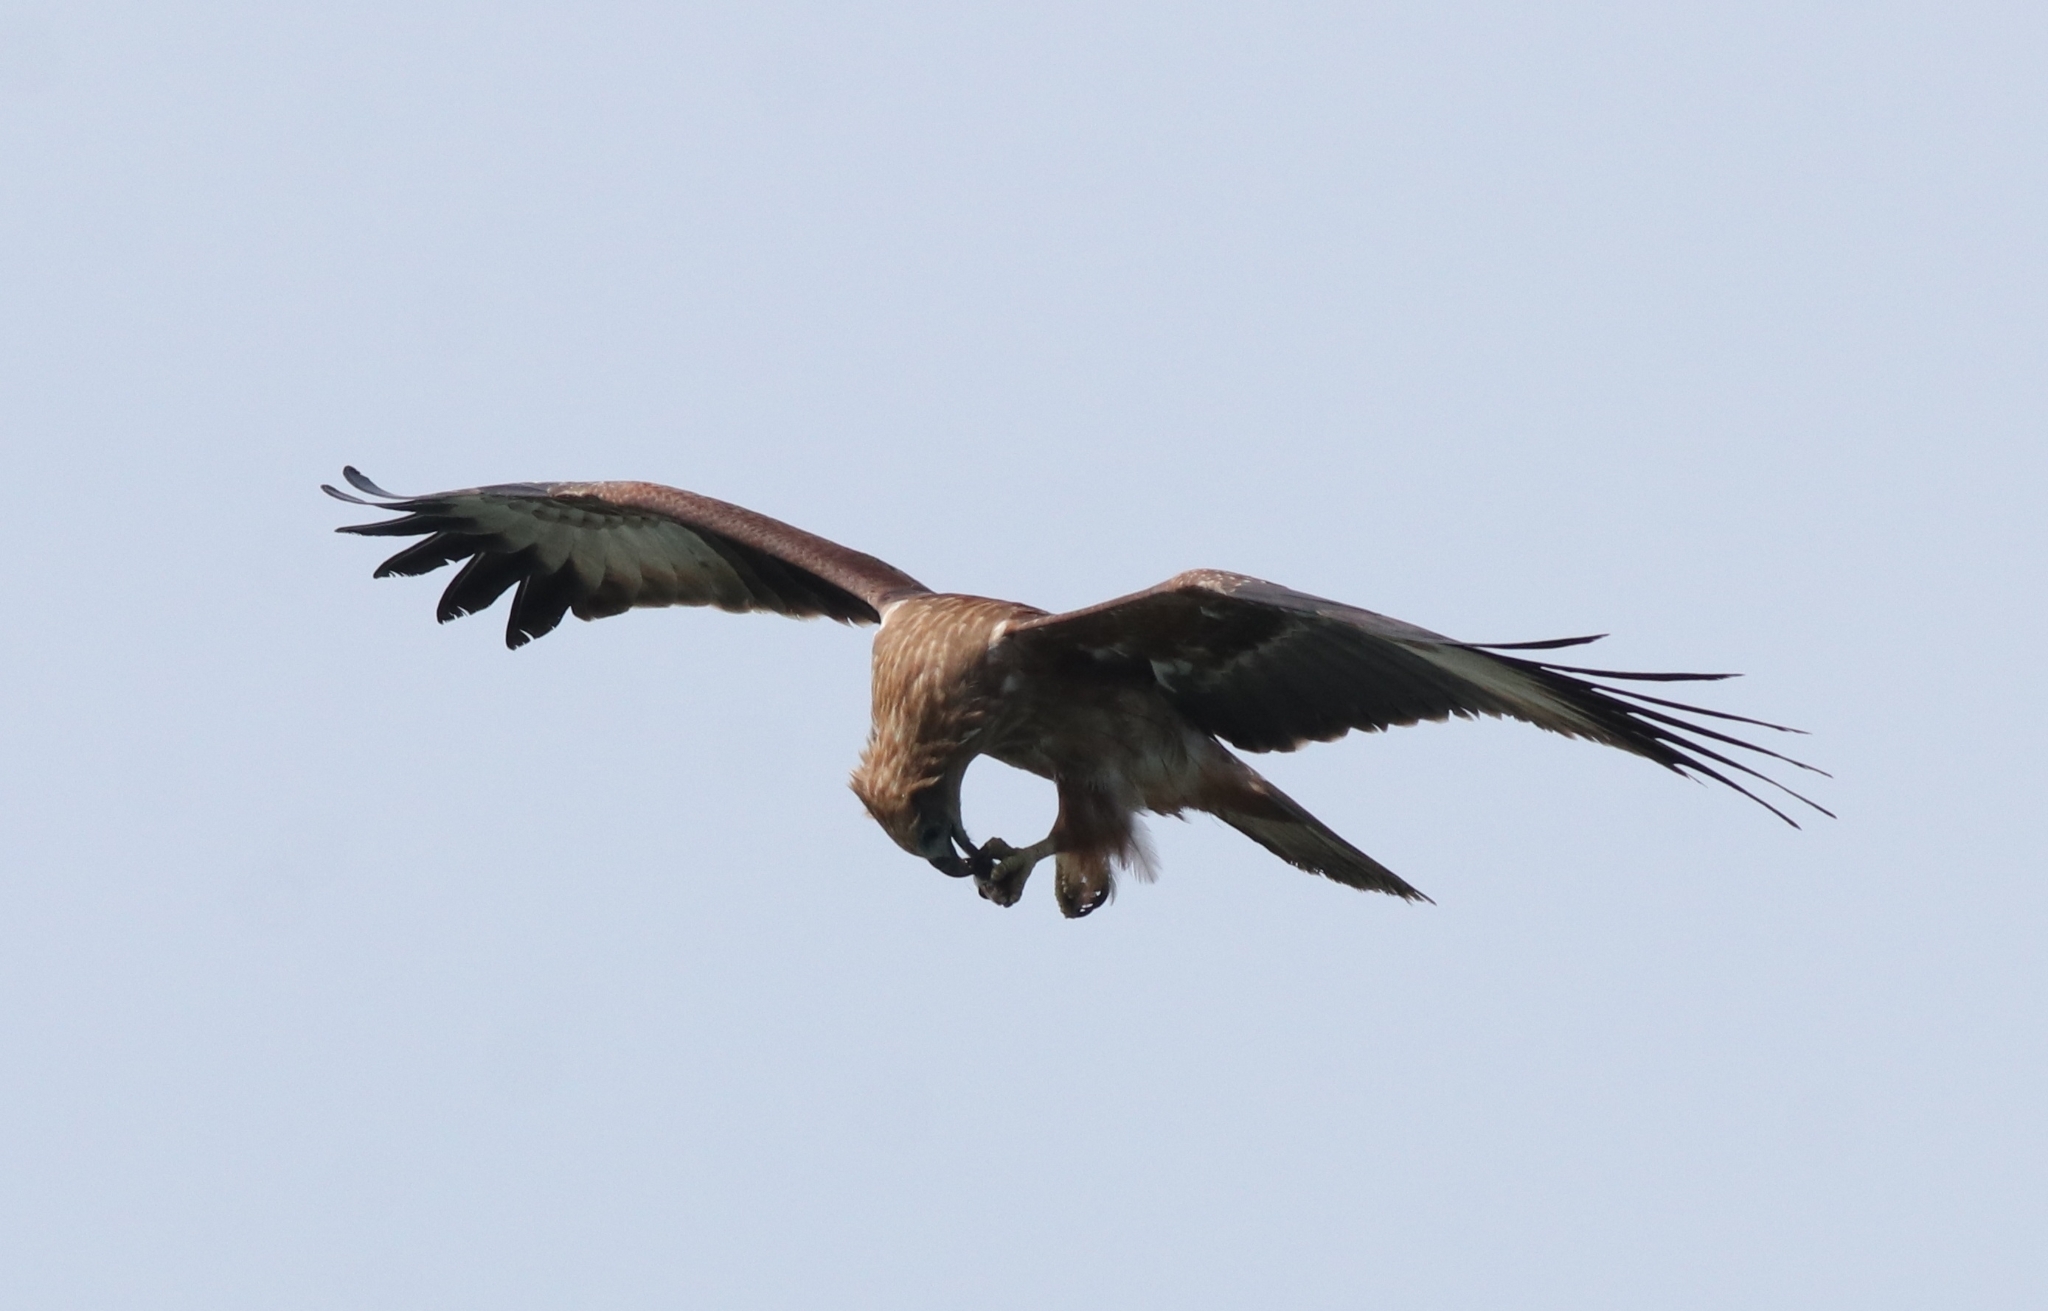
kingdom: Animalia
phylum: Chordata
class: Aves
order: Accipitriformes
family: Accipitridae
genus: Haliastur
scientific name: Haliastur indus
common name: Brahminy kite
